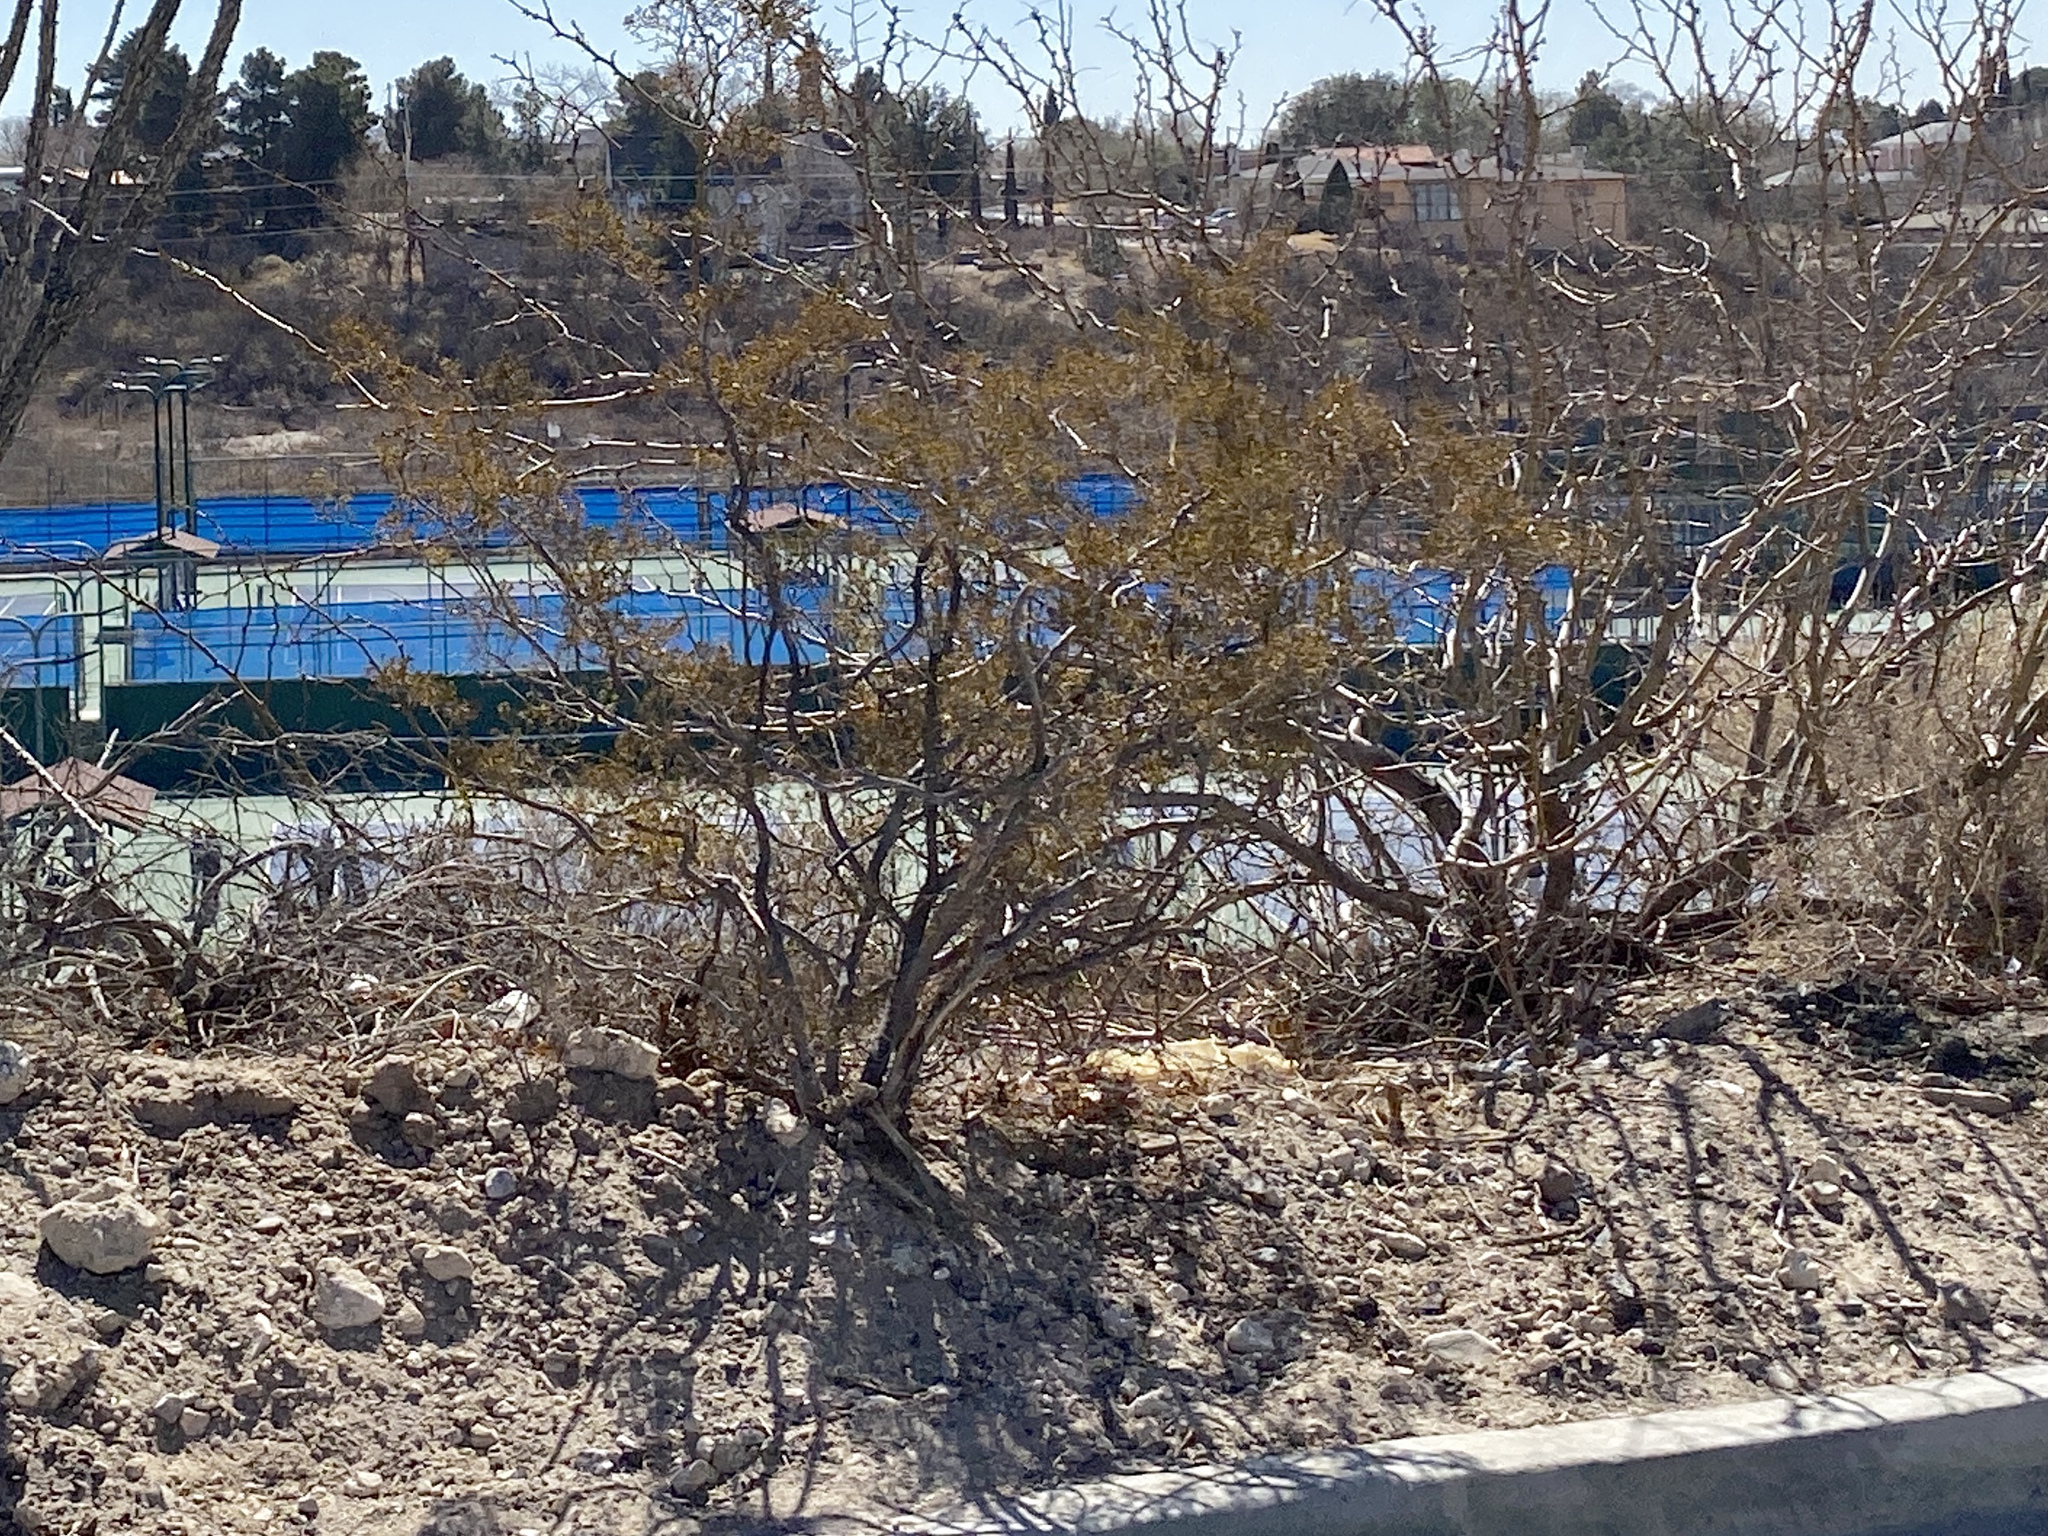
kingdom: Plantae
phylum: Tracheophyta
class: Magnoliopsida
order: Zygophyllales
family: Zygophyllaceae
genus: Larrea
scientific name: Larrea tridentata
